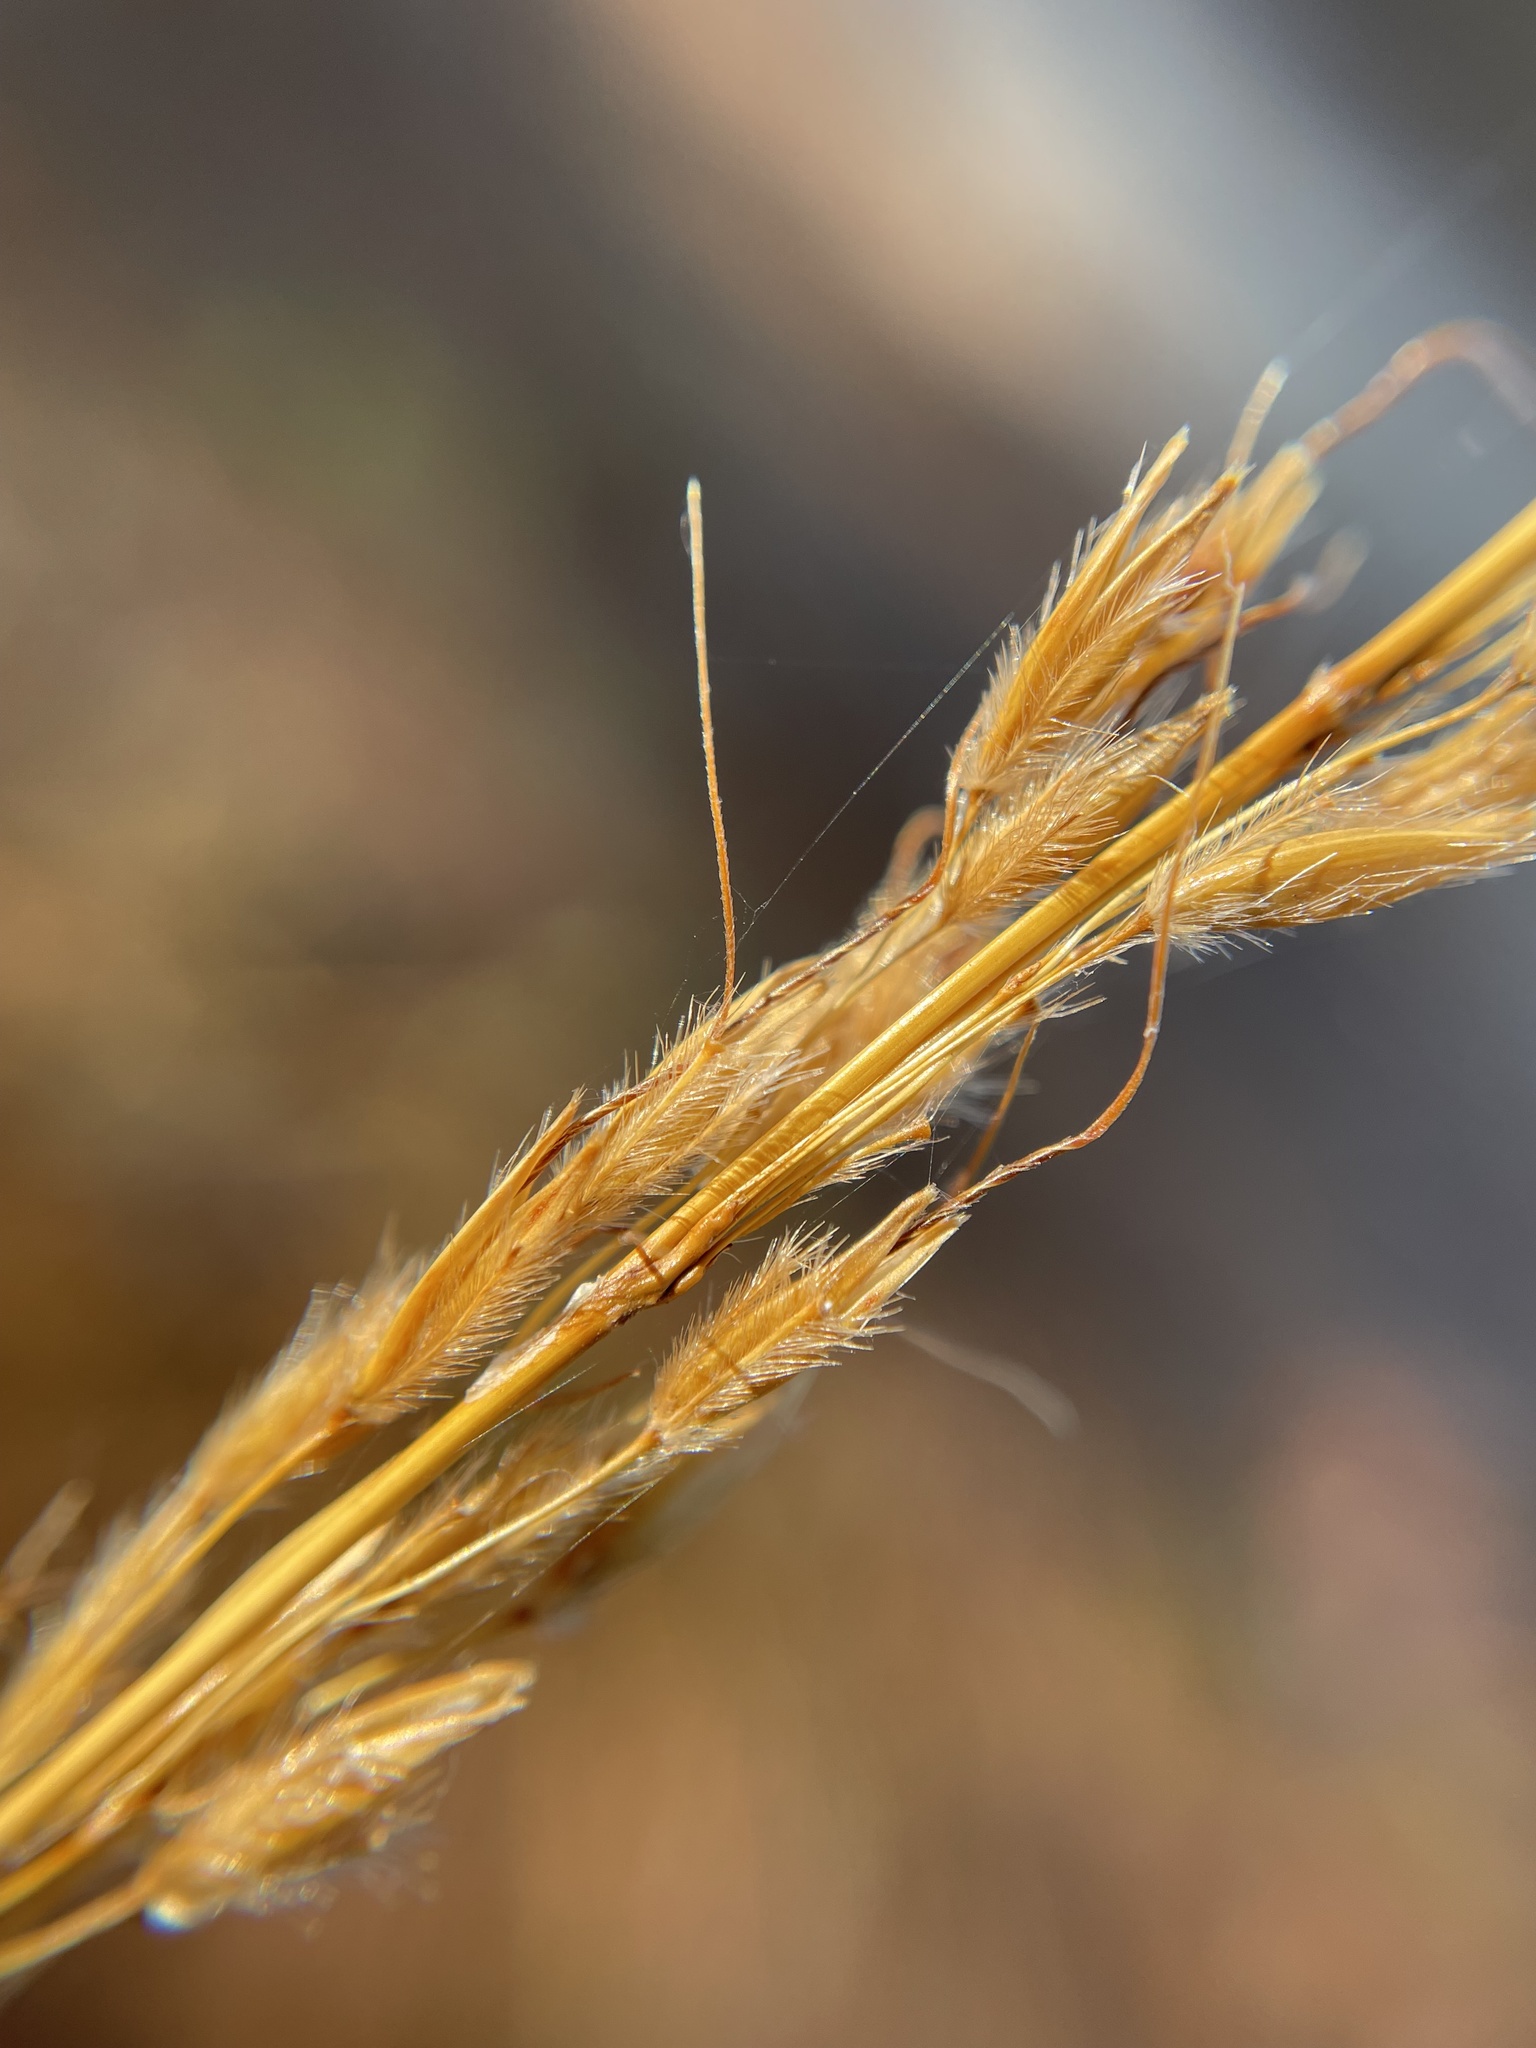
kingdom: Plantae
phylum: Tracheophyta
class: Liliopsida
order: Poales
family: Poaceae
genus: Sorghastrum
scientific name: Sorghastrum nutans
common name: Indian grass
